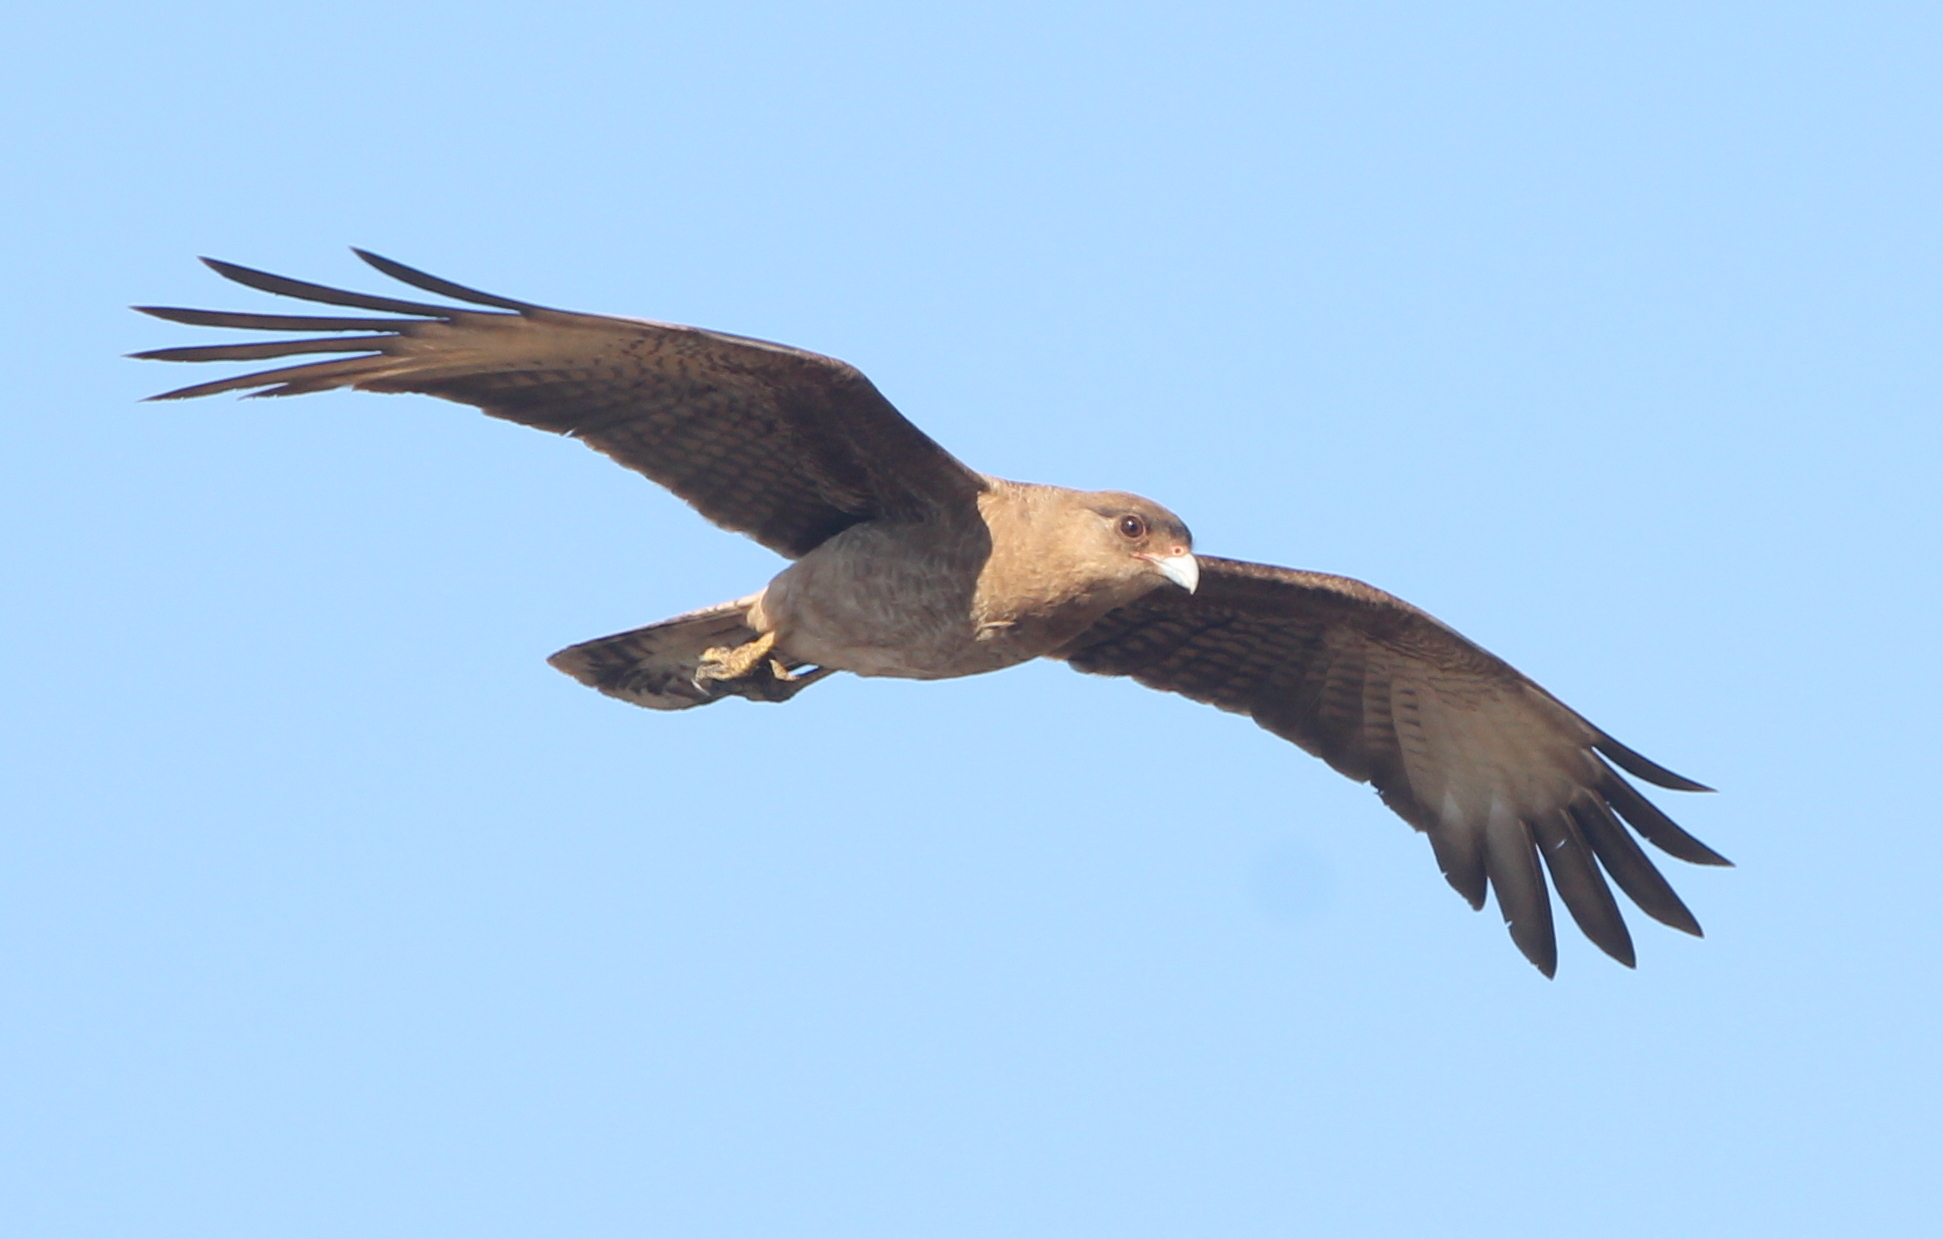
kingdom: Animalia
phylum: Chordata
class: Aves
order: Falconiformes
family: Falconidae
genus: Daptrius
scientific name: Daptrius
